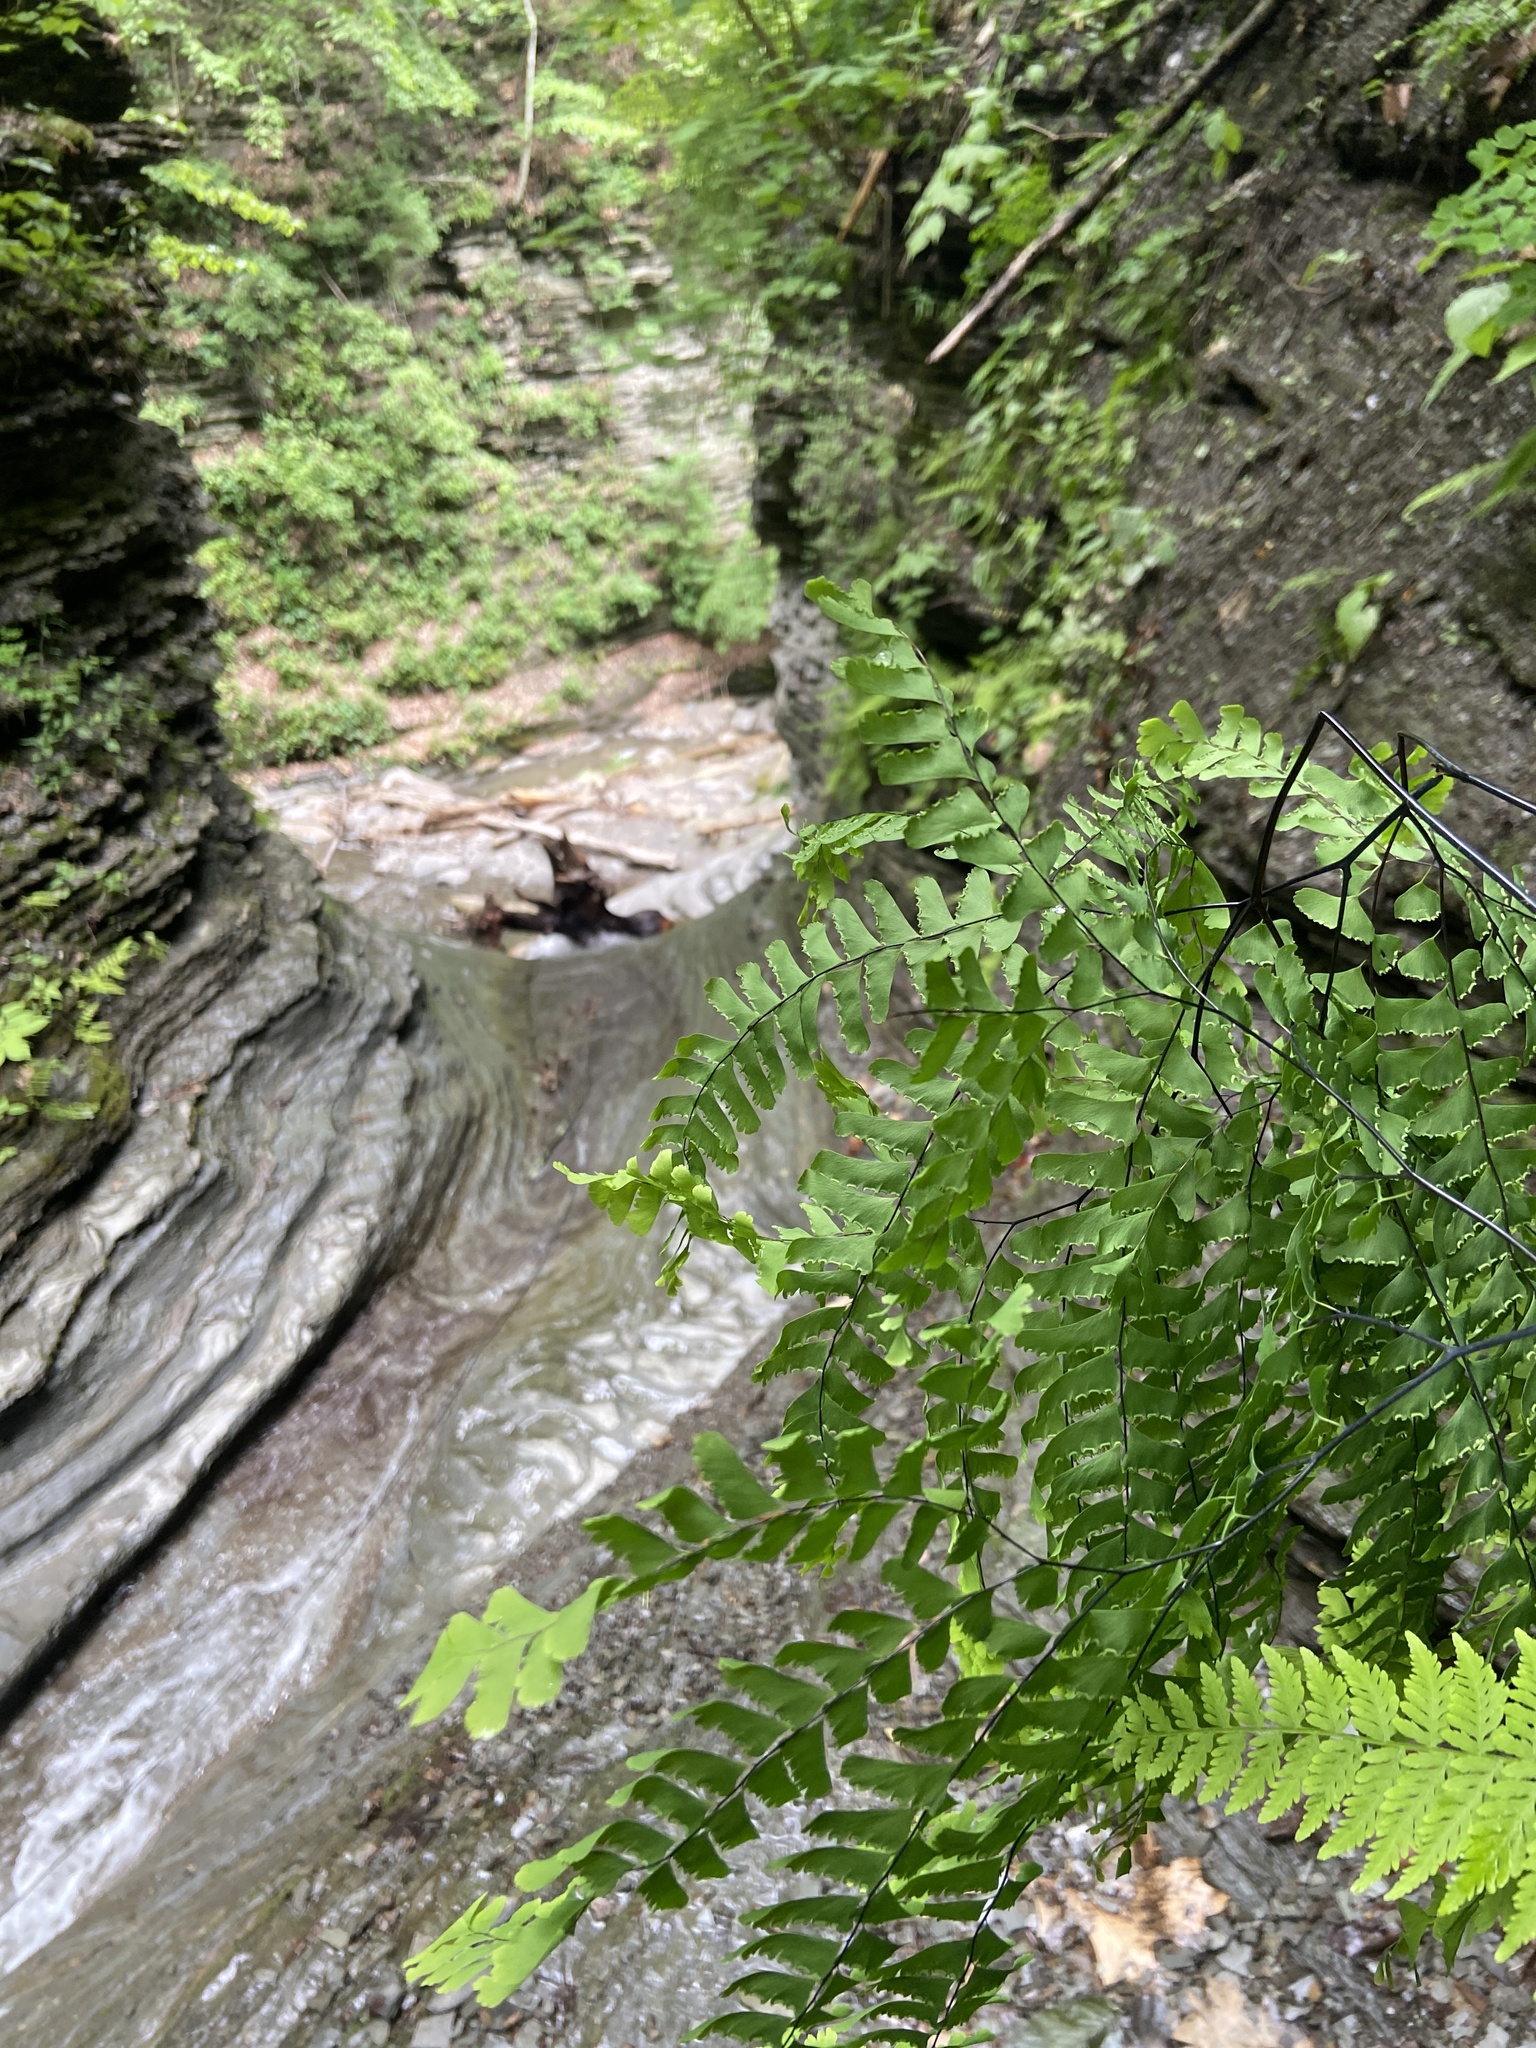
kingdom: Plantae
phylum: Tracheophyta
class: Polypodiopsida
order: Polypodiales
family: Pteridaceae
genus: Adiantum
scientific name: Adiantum pedatum
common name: Five-finger fern
